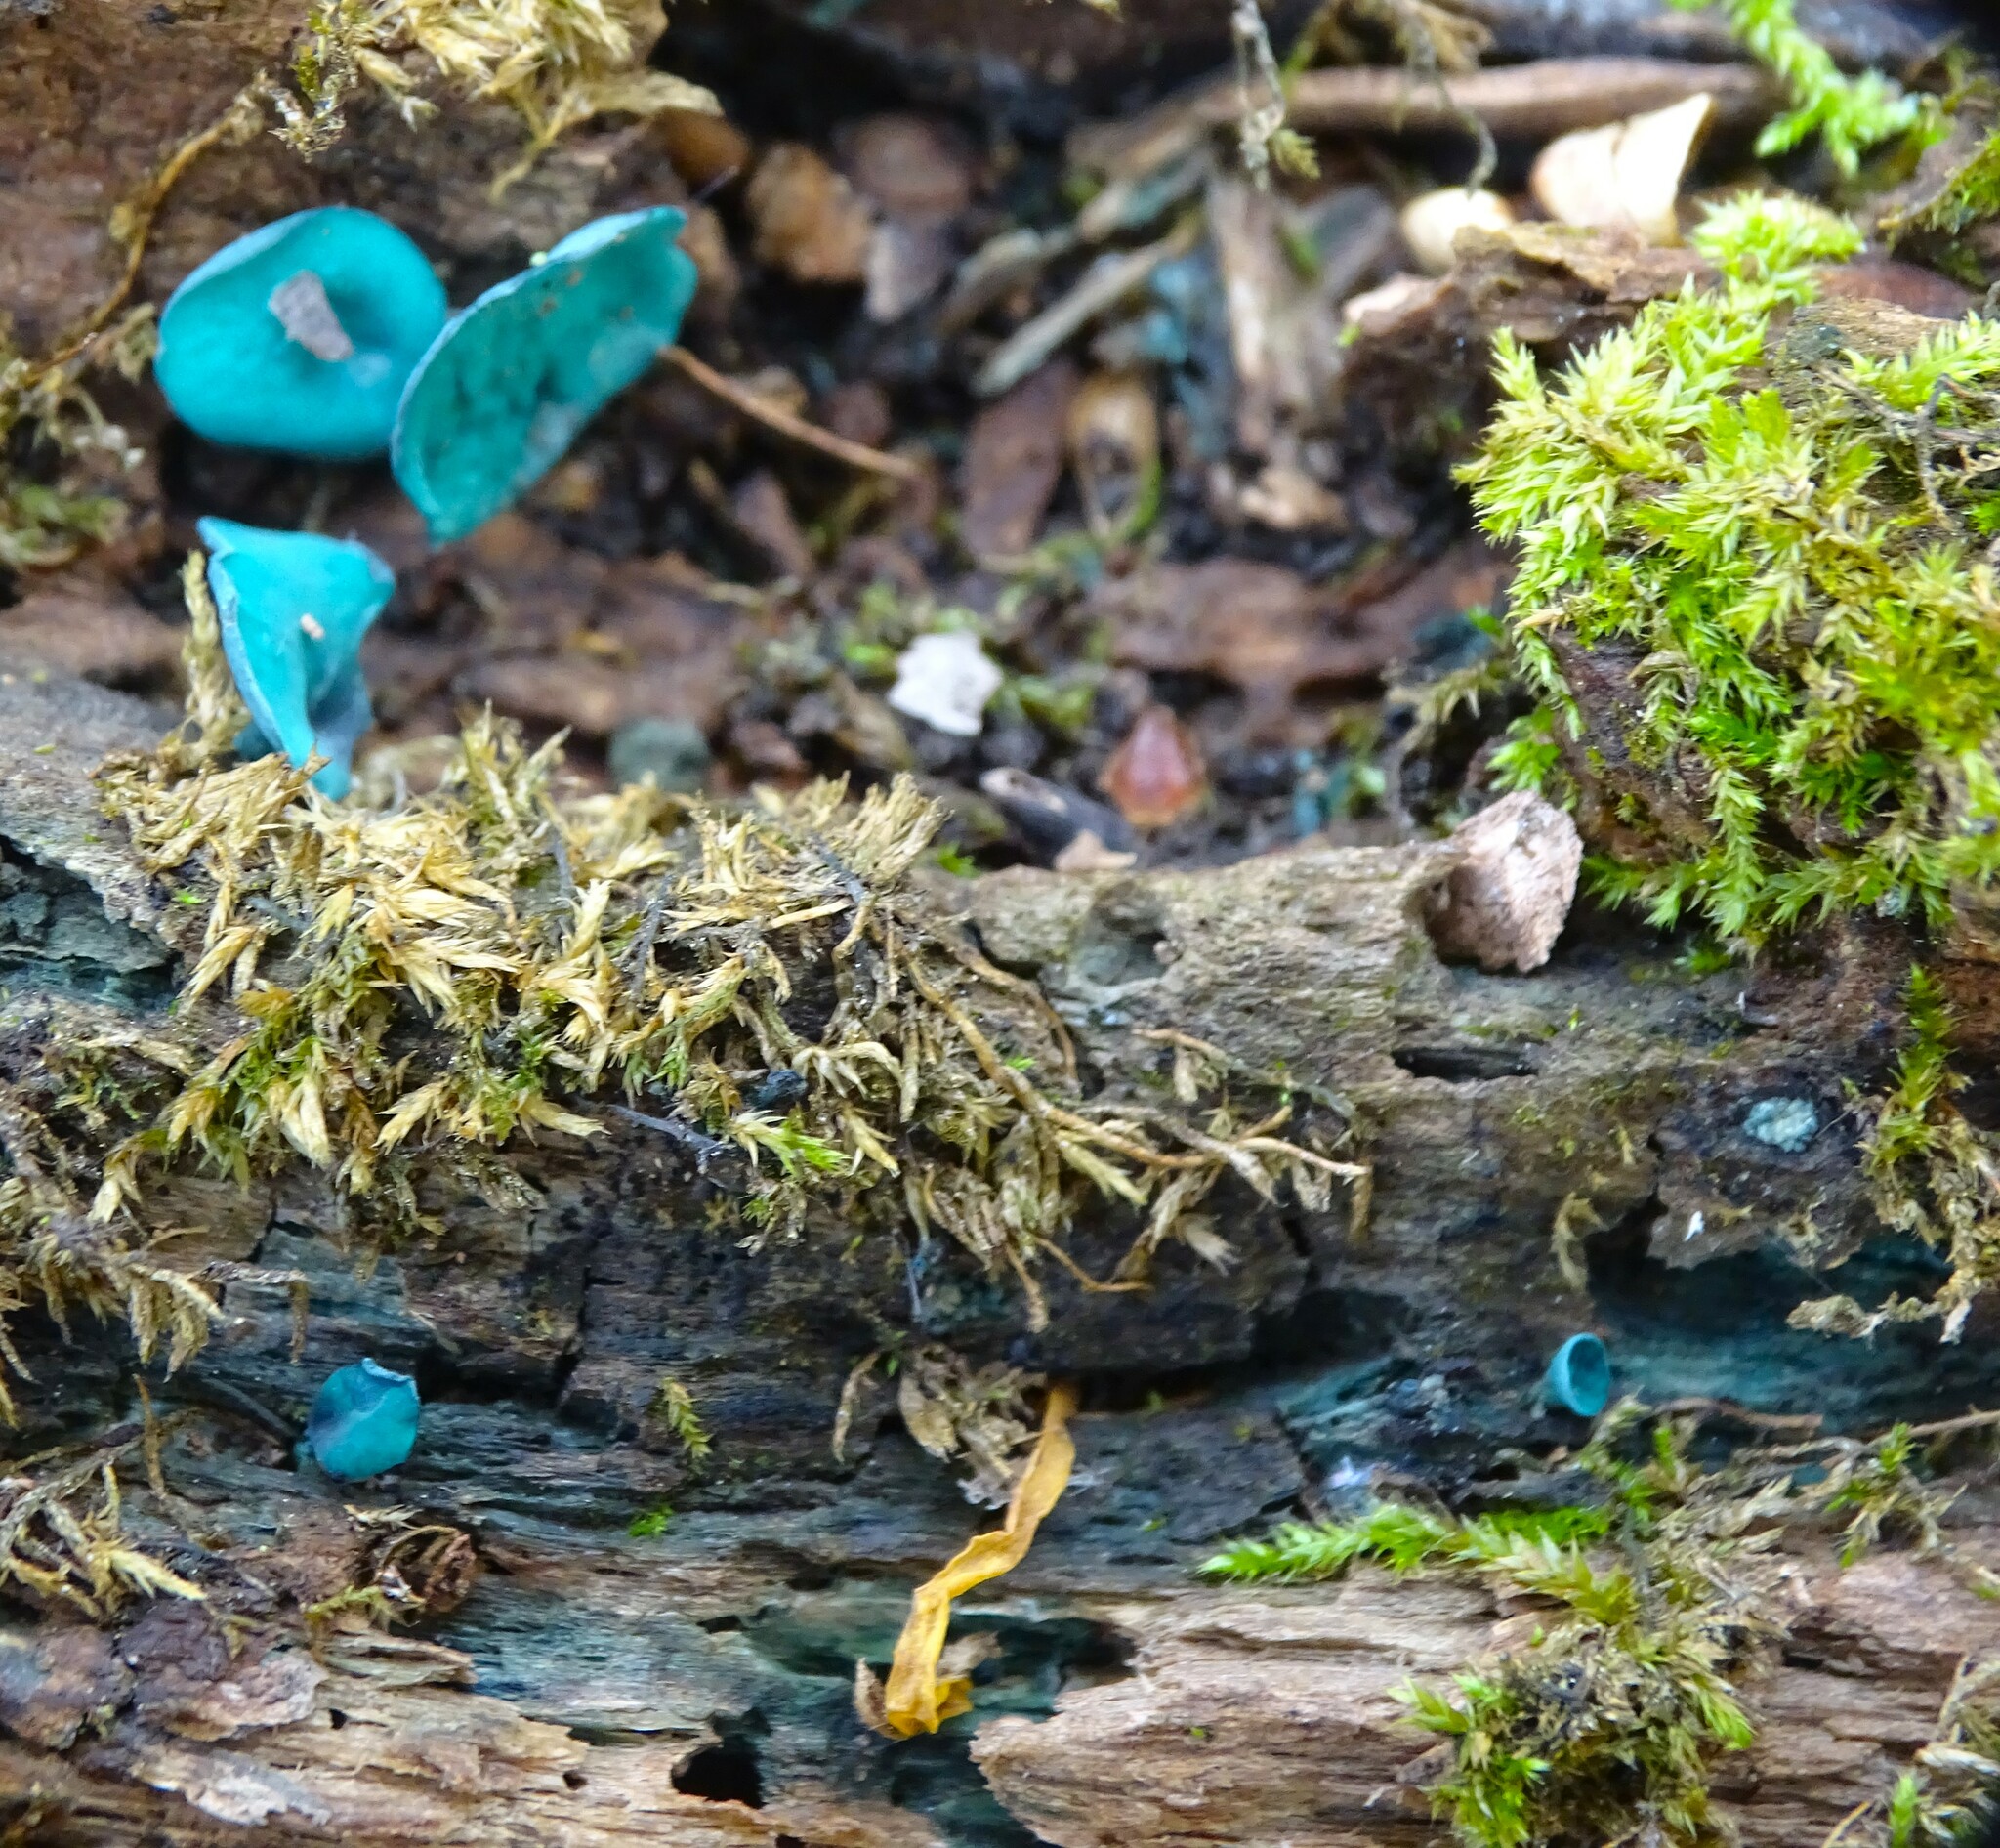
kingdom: Fungi
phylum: Ascomycota
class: Leotiomycetes
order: Helotiales
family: Chlorociboriaceae
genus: Chlorociboria
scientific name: Chlorociboria aeruginascens
